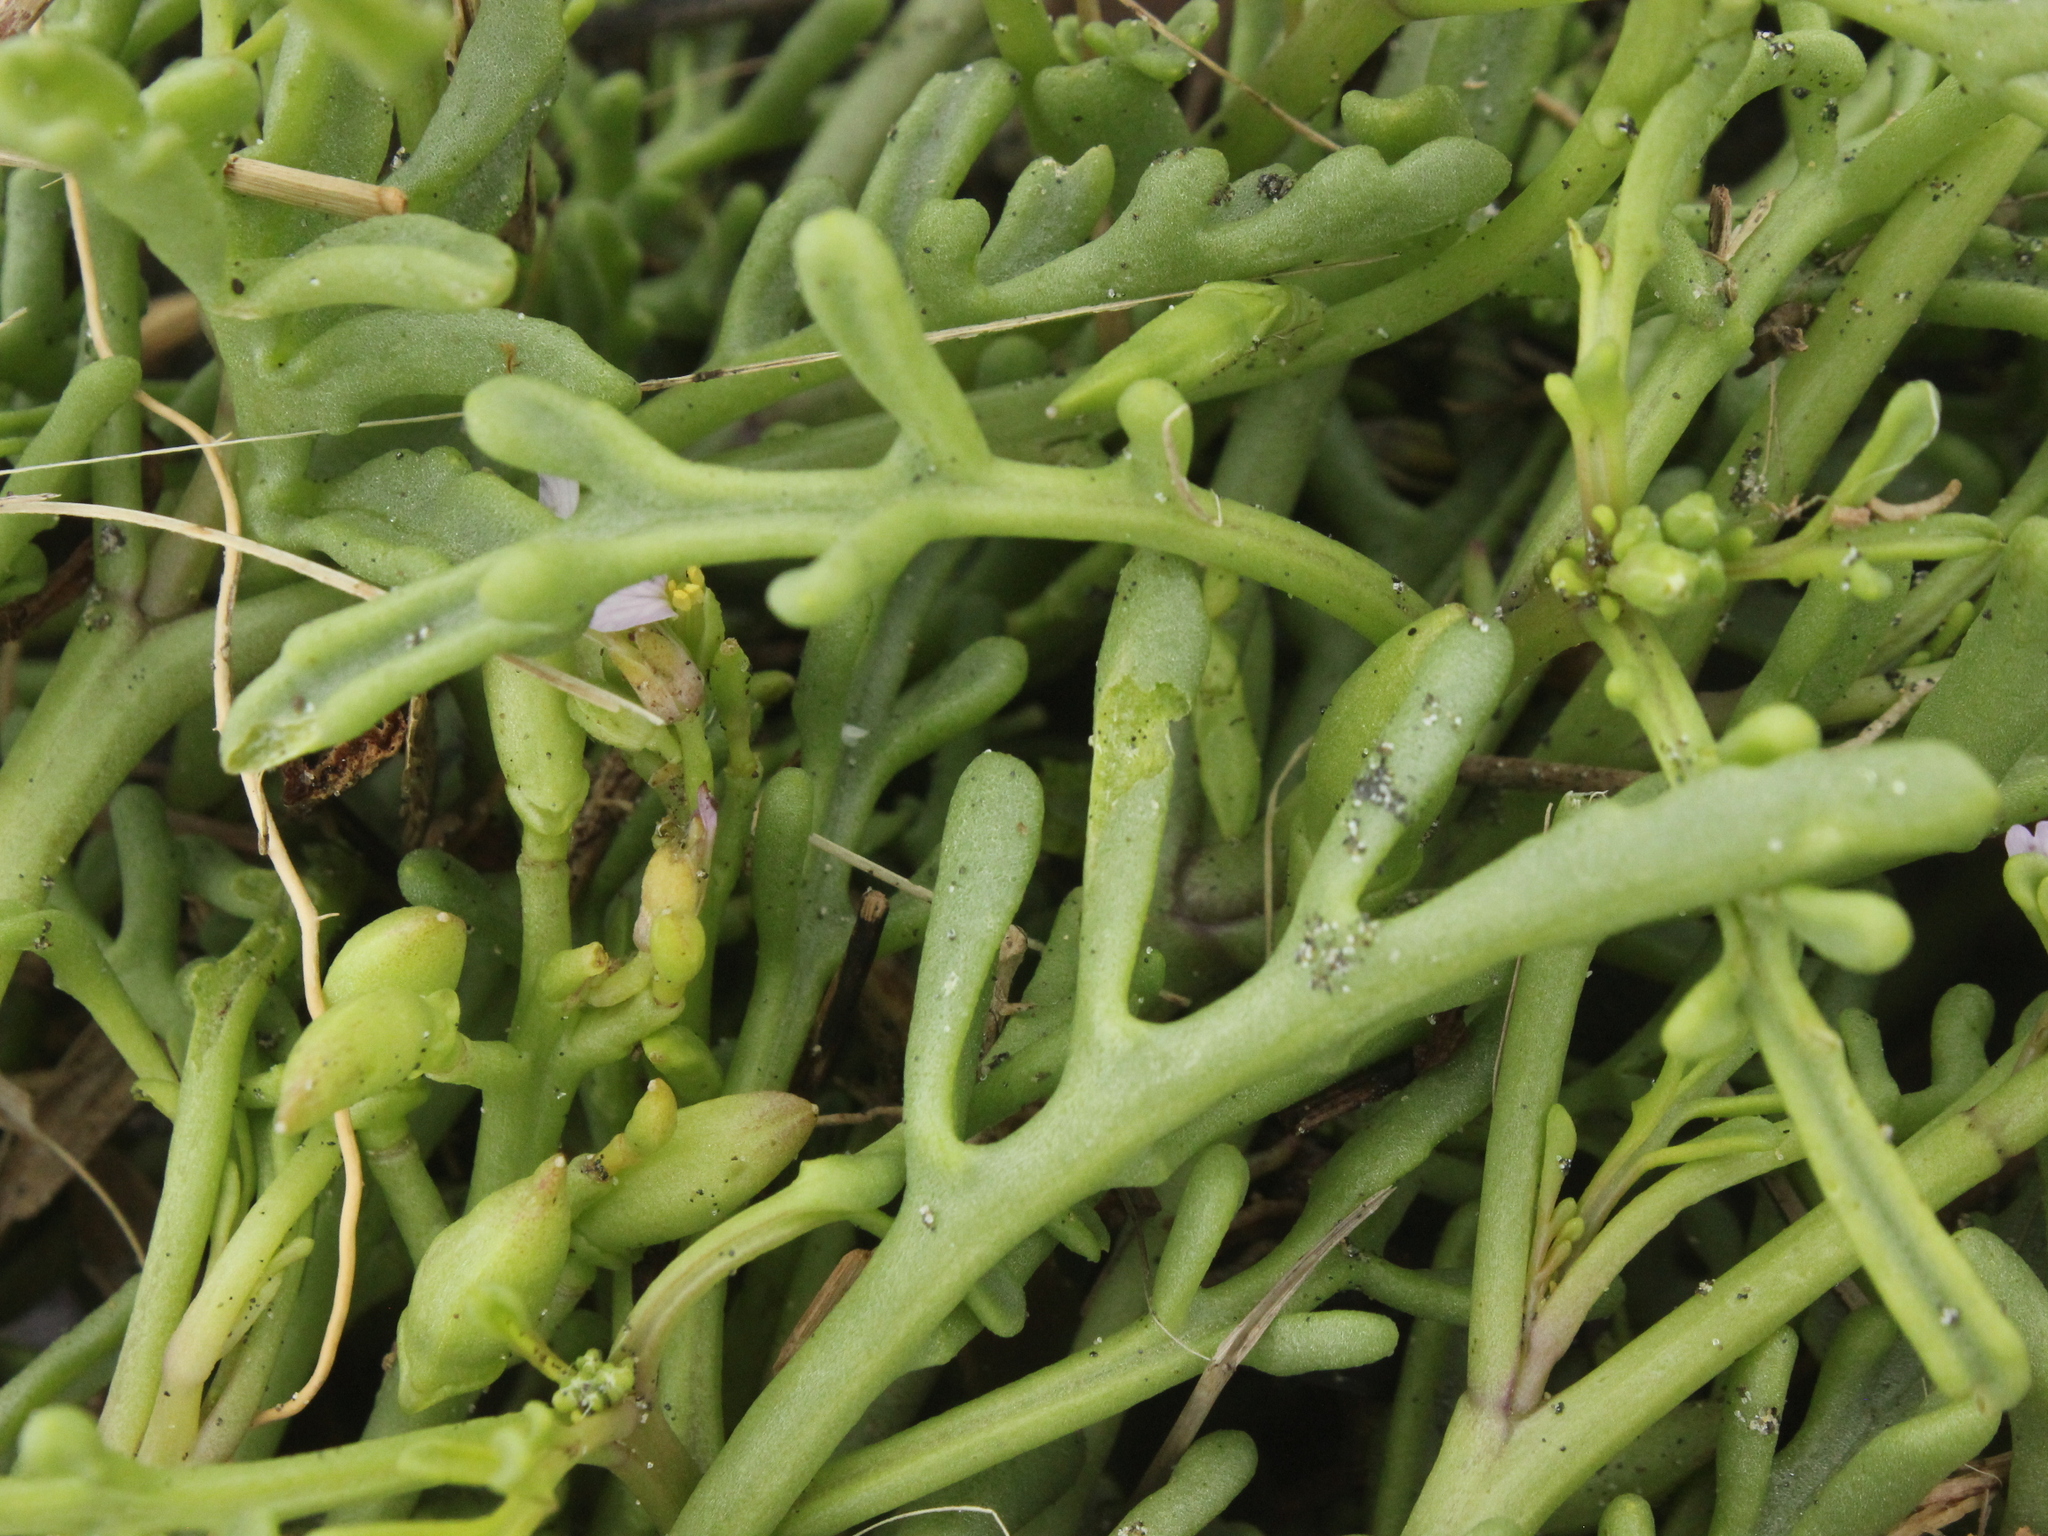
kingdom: Plantae
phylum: Tracheophyta
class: Magnoliopsida
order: Brassicales
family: Brassicaceae
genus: Cakile
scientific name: Cakile maritima
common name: Sea rocket
